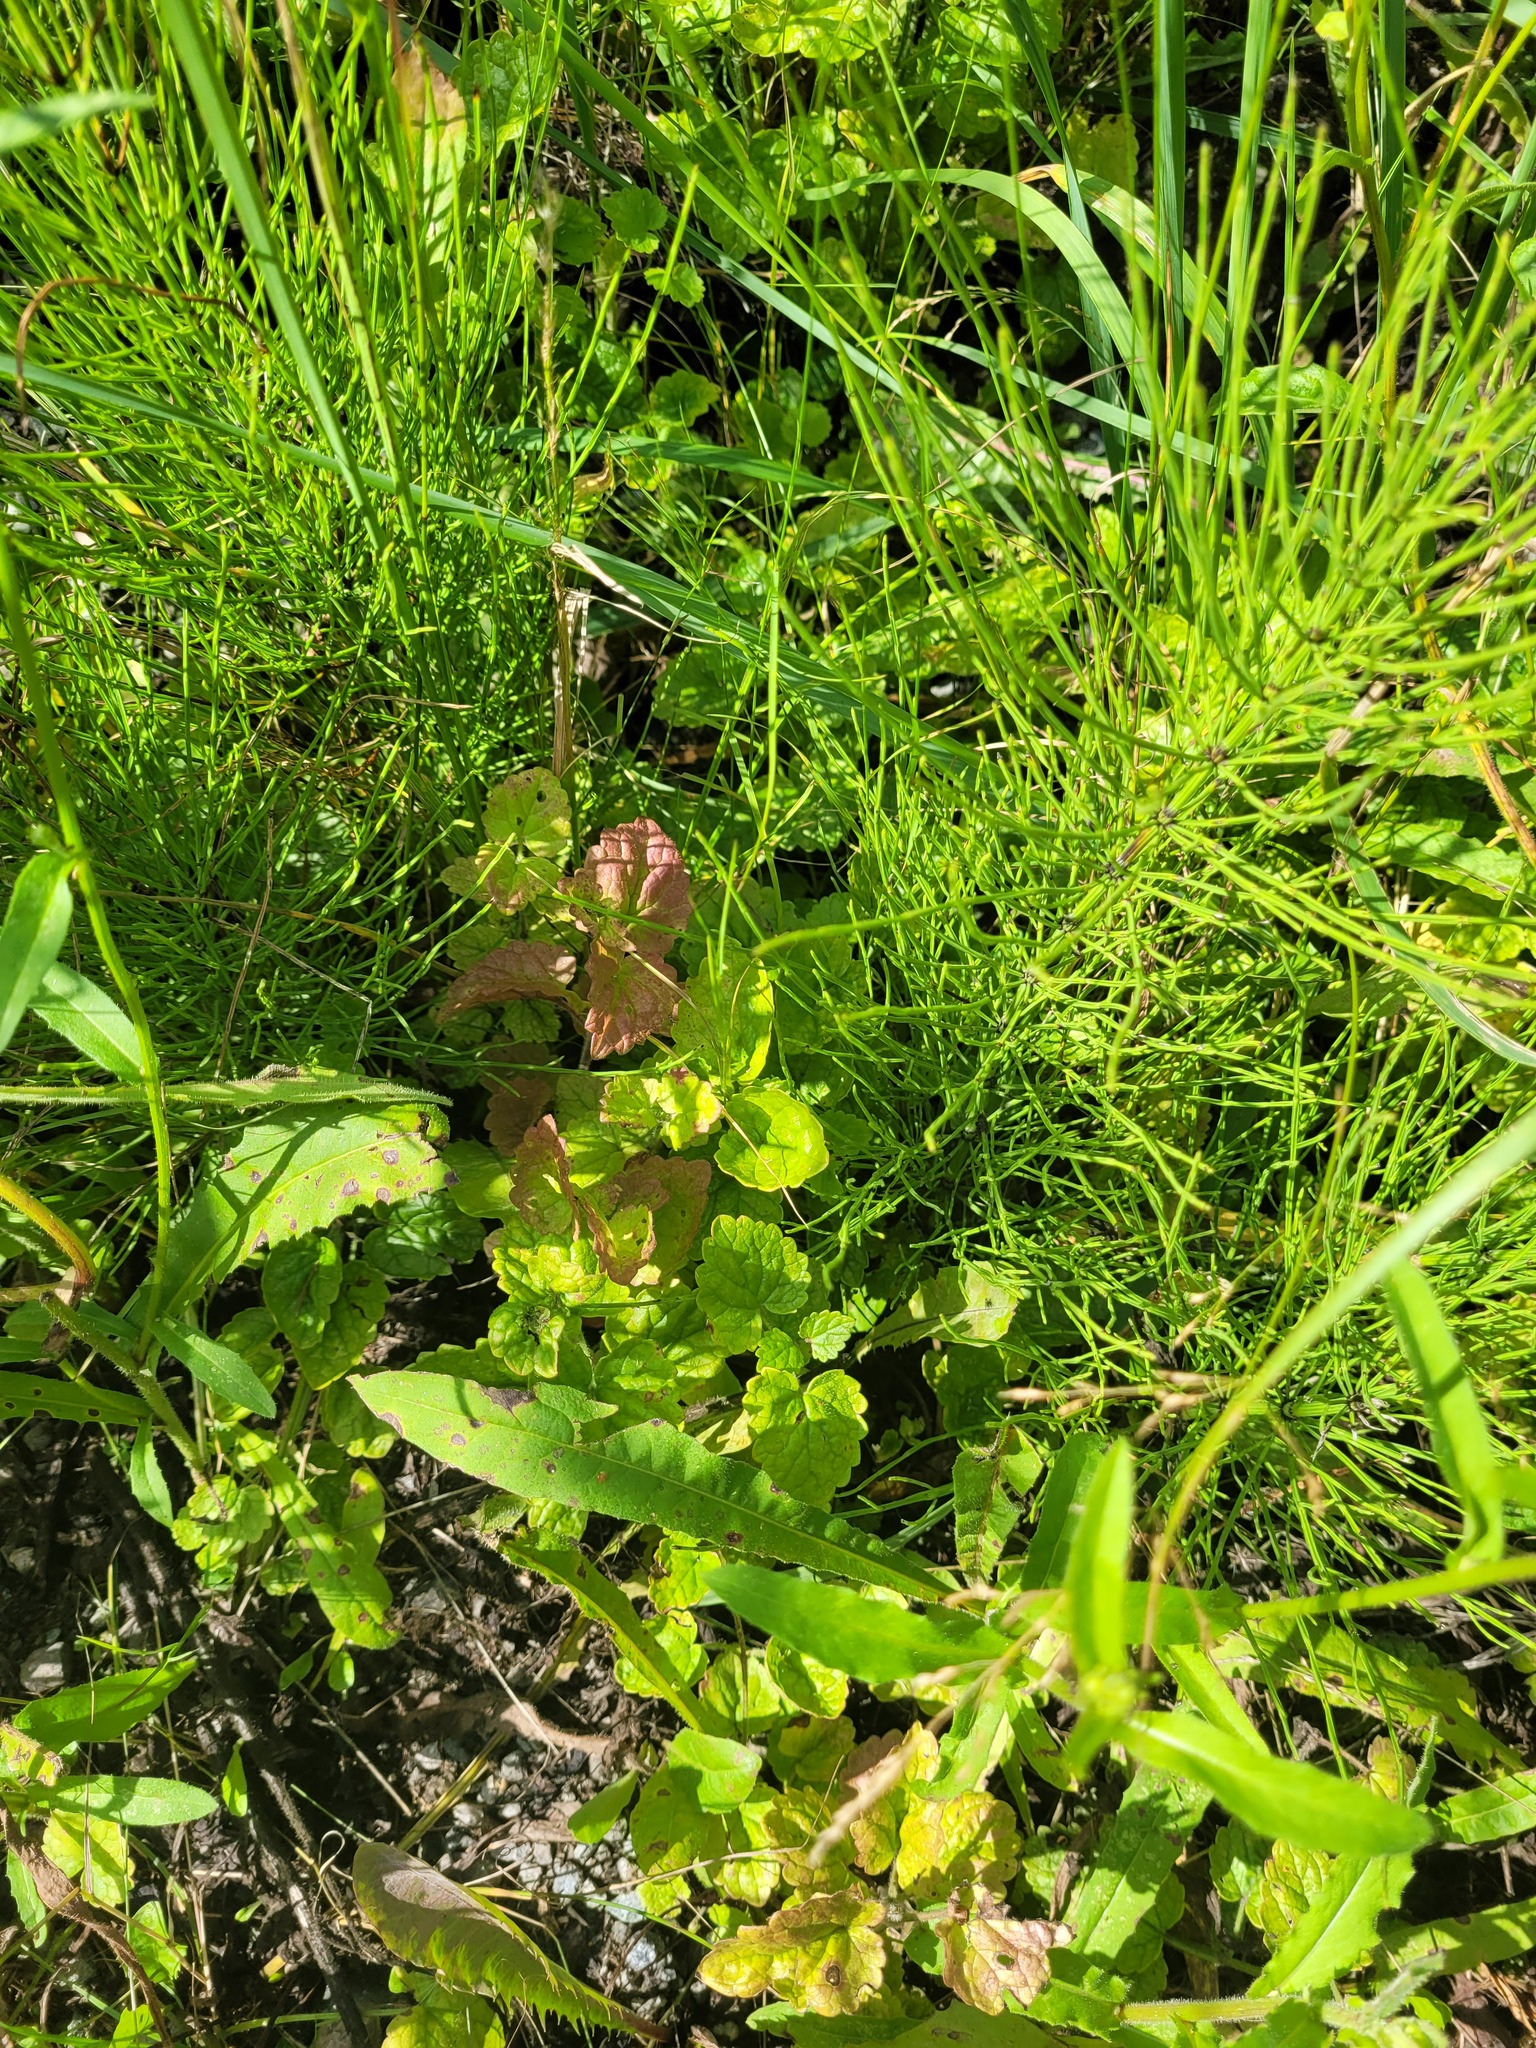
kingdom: Plantae
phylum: Tracheophyta
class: Magnoliopsida
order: Lamiales
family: Lamiaceae
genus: Glechoma
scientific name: Glechoma hederacea
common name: Ground ivy
